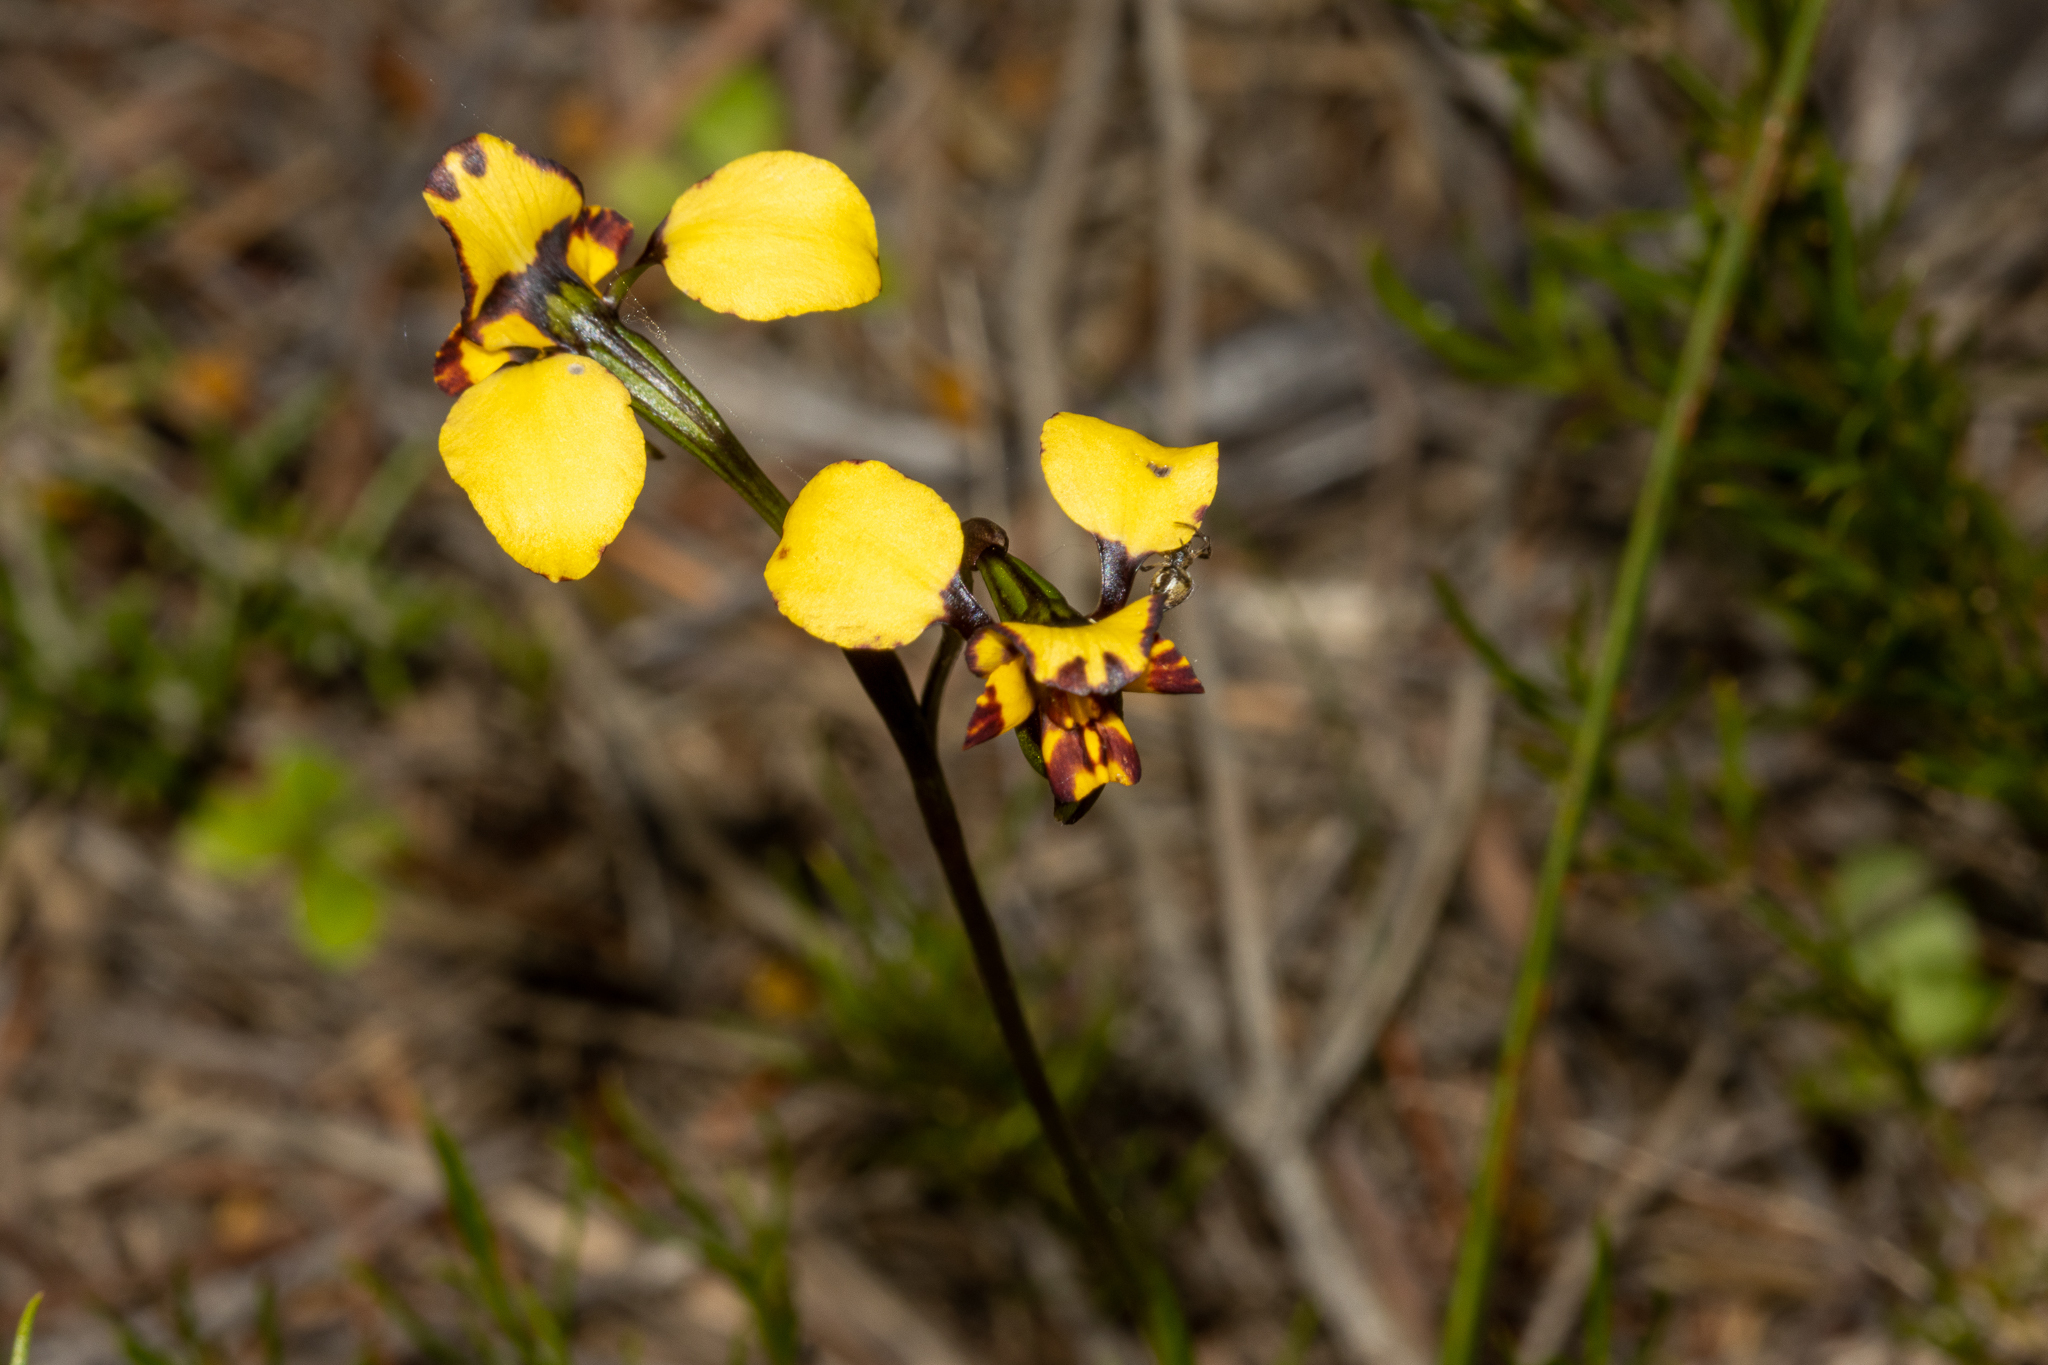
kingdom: Plantae
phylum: Tracheophyta
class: Liliopsida
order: Asparagales
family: Orchidaceae
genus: Diuris
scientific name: Diuris pardina
